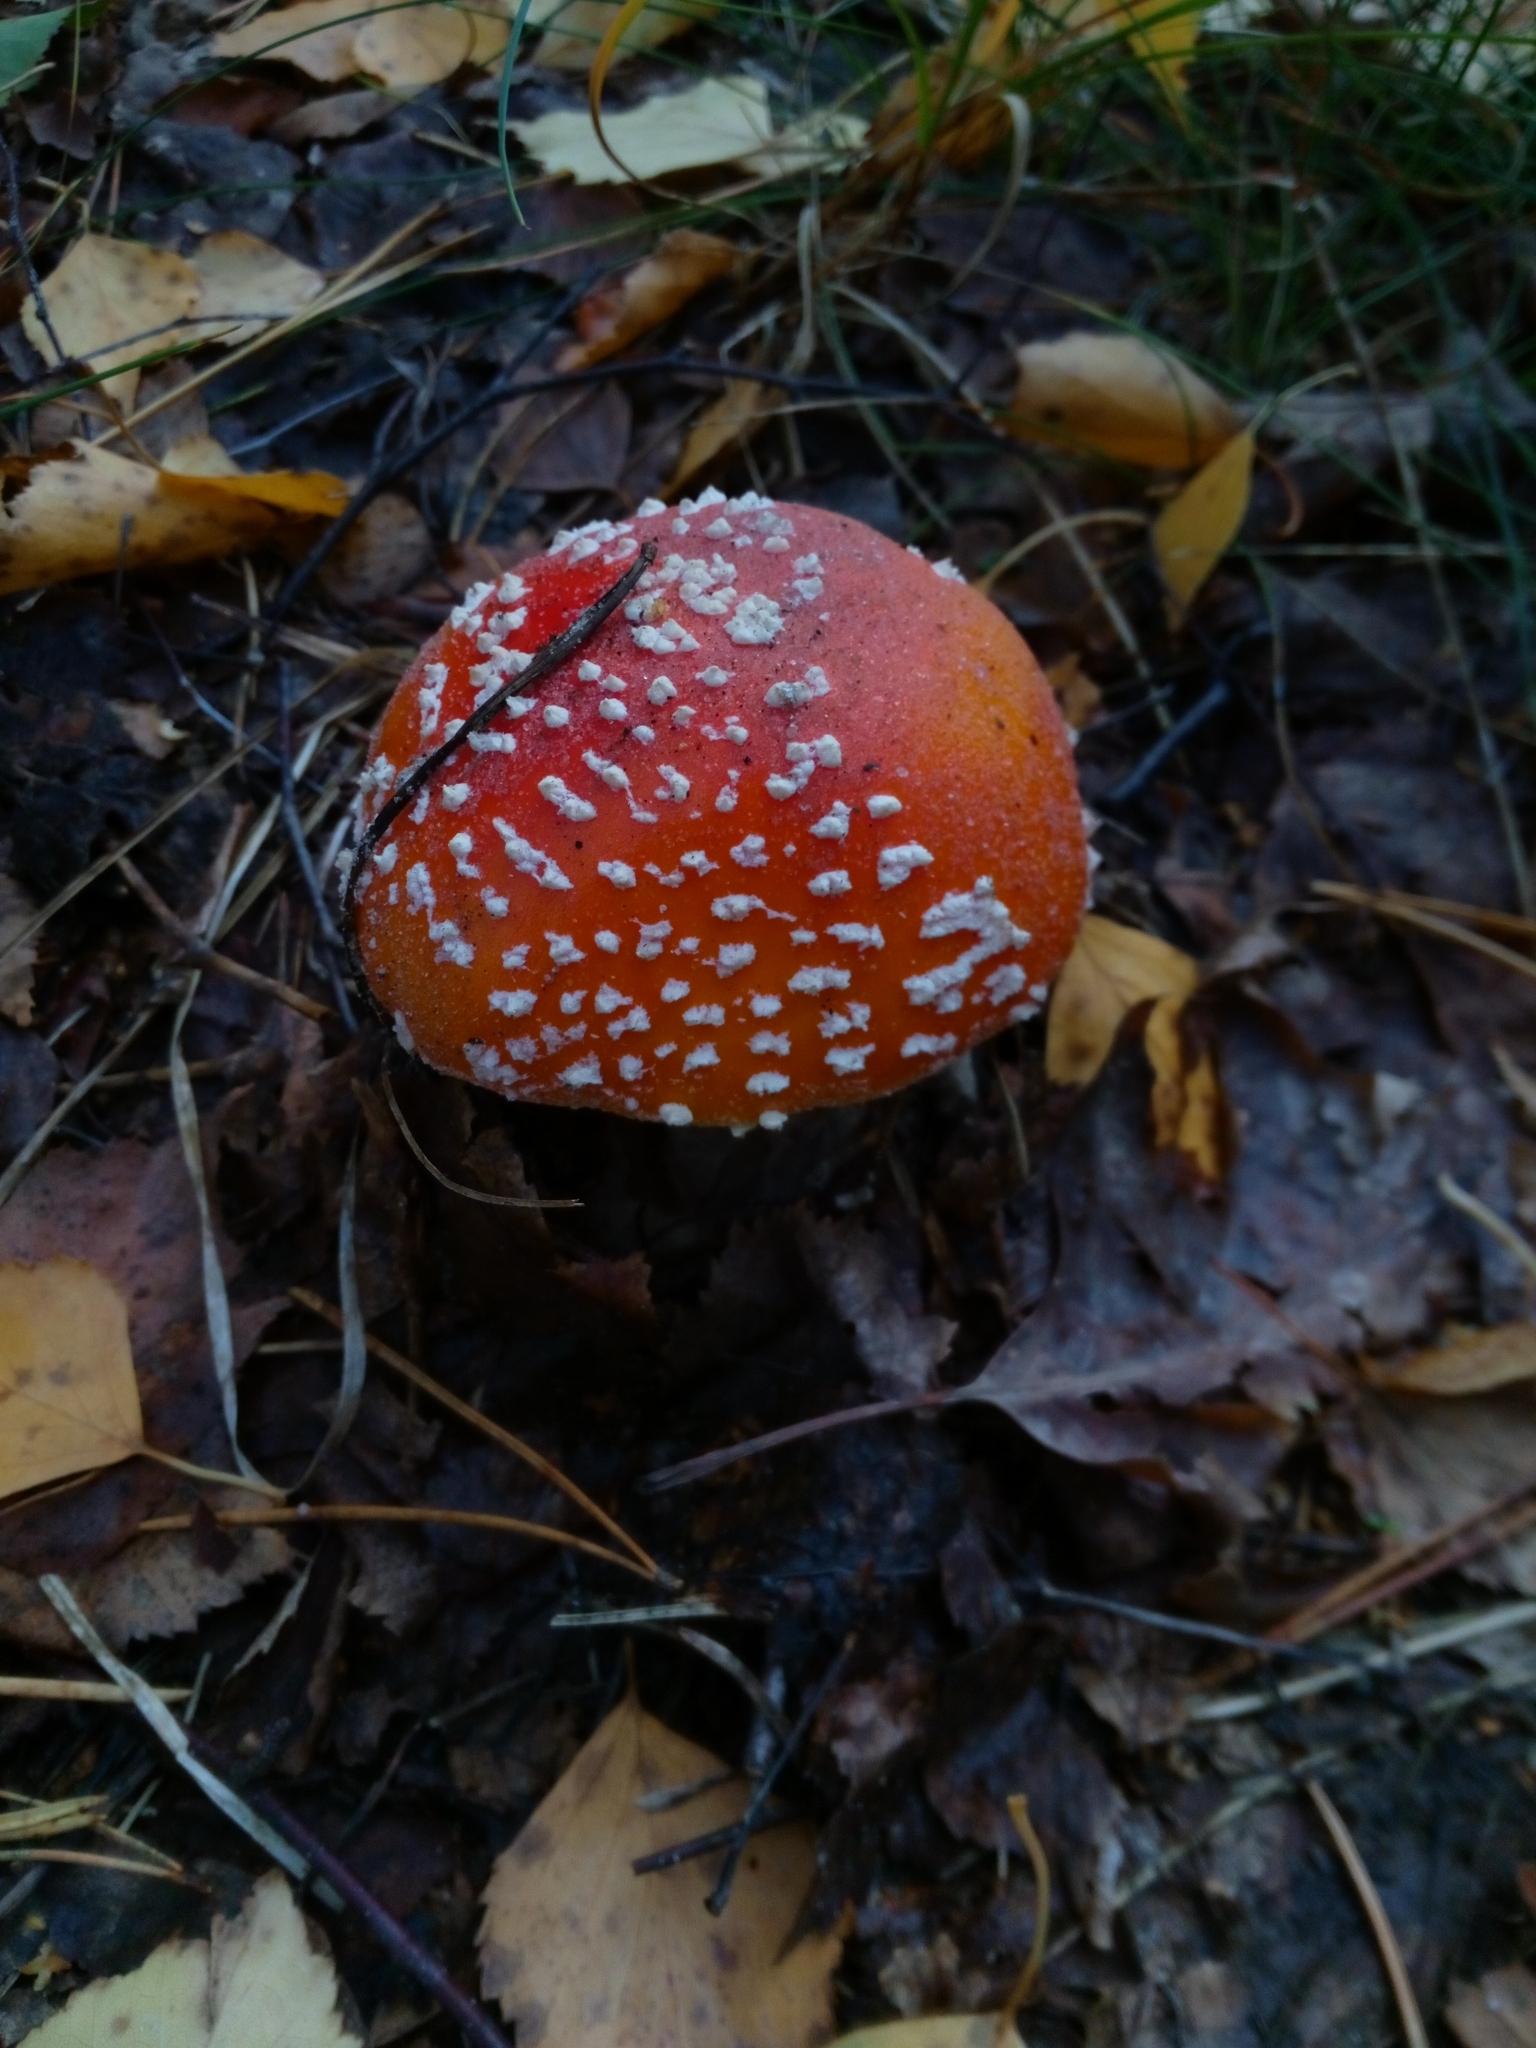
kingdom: Fungi
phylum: Basidiomycota
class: Agaricomycetes
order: Agaricales
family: Amanitaceae
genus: Amanita
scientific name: Amanita muscaria
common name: Fly agaric
